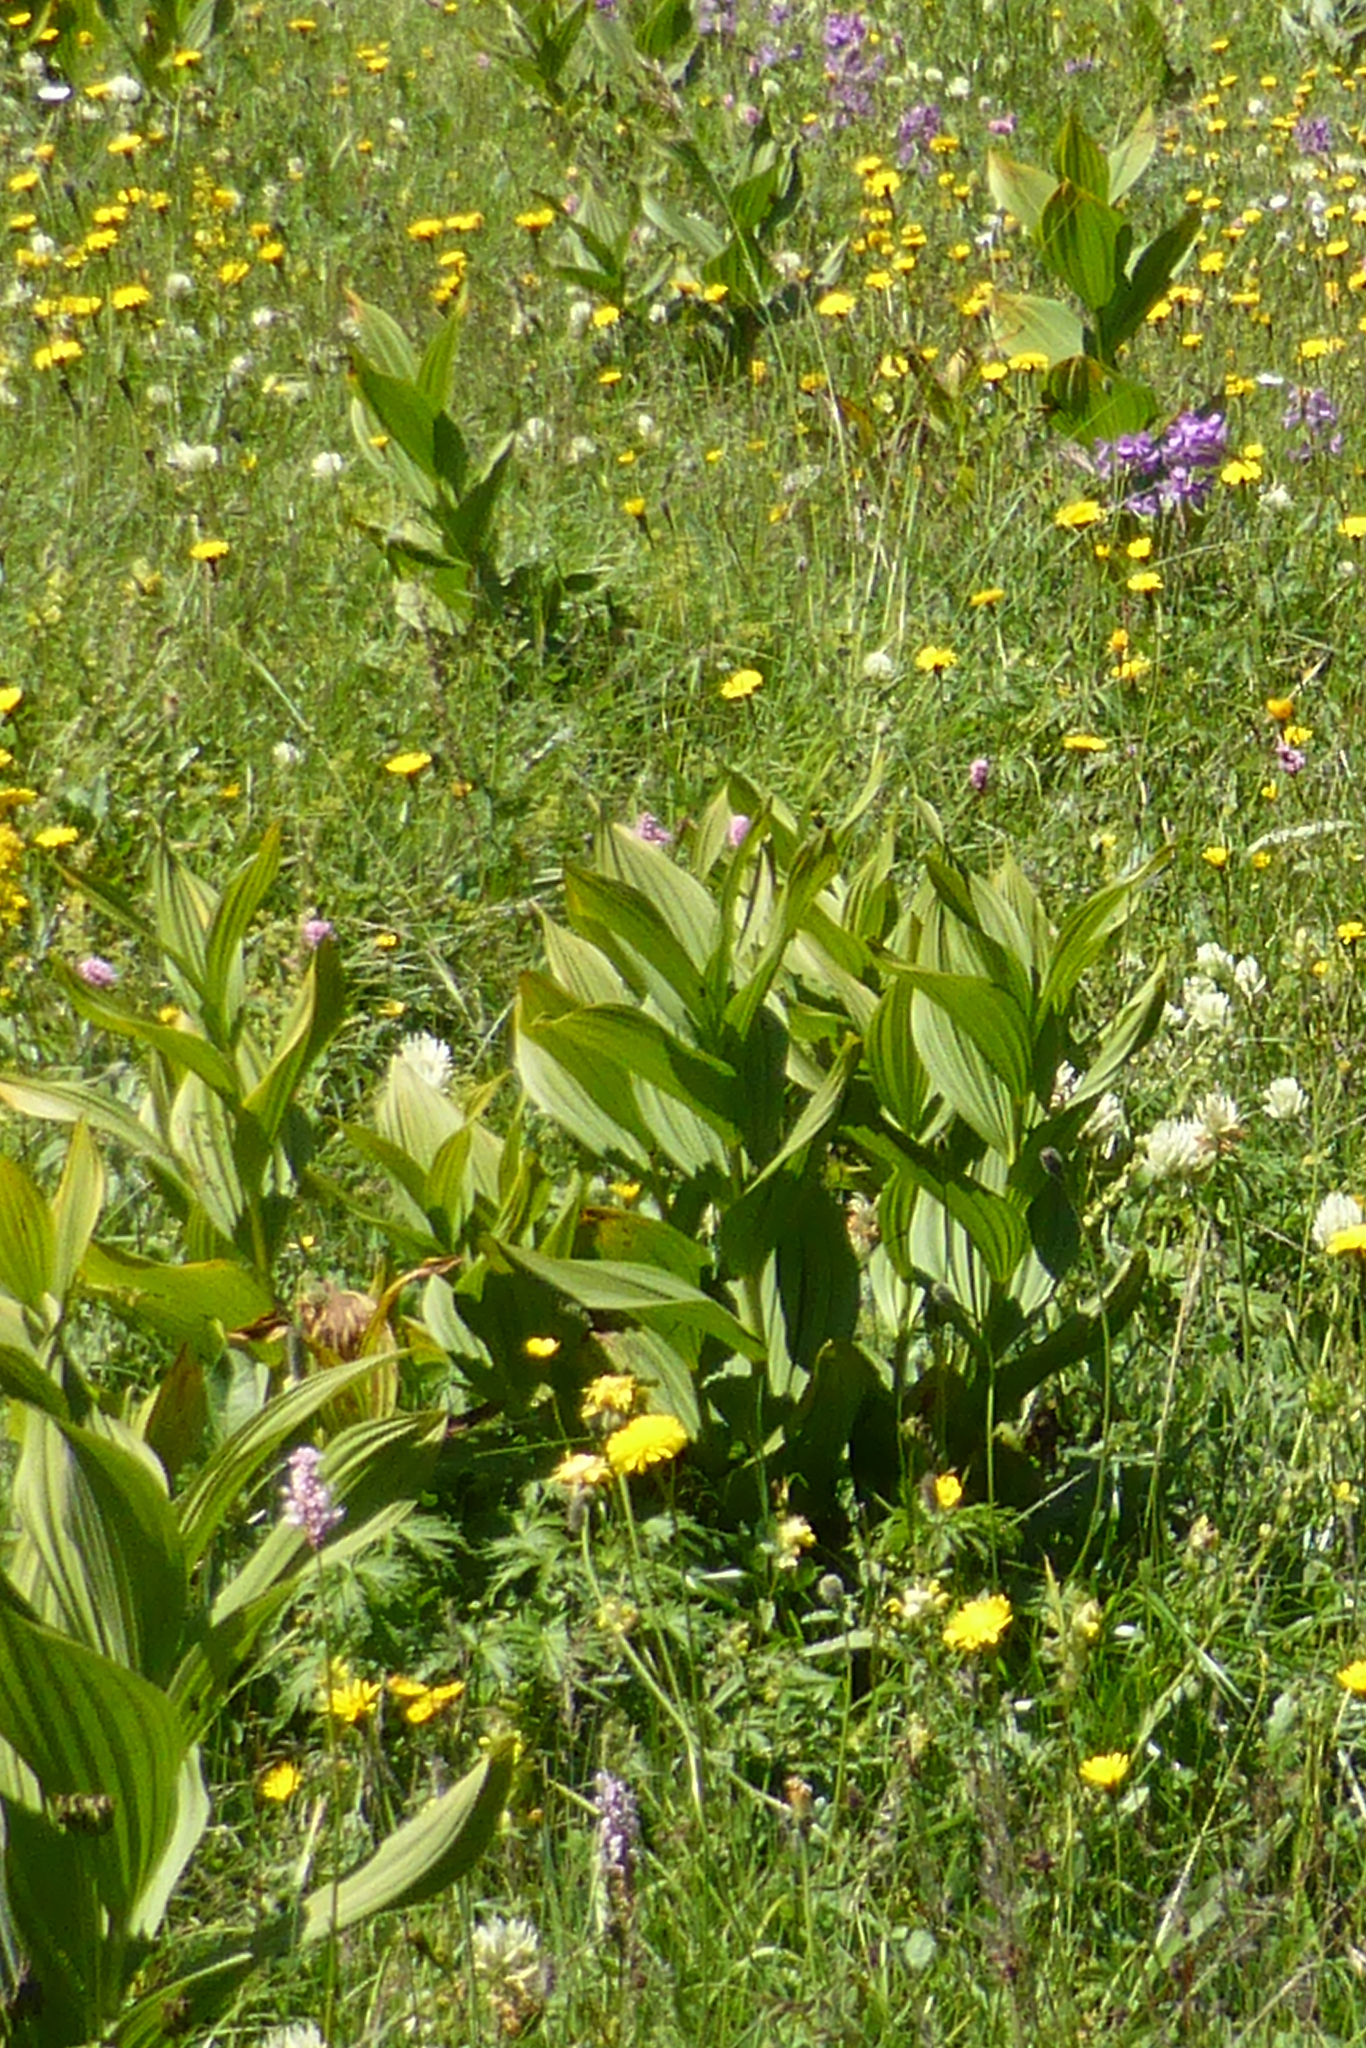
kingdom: Plantae
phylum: Tracheophyta
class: Liliopsida
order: Liliales
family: Melanthiaceae
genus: Veratrum
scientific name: Veratrum lobelianum
